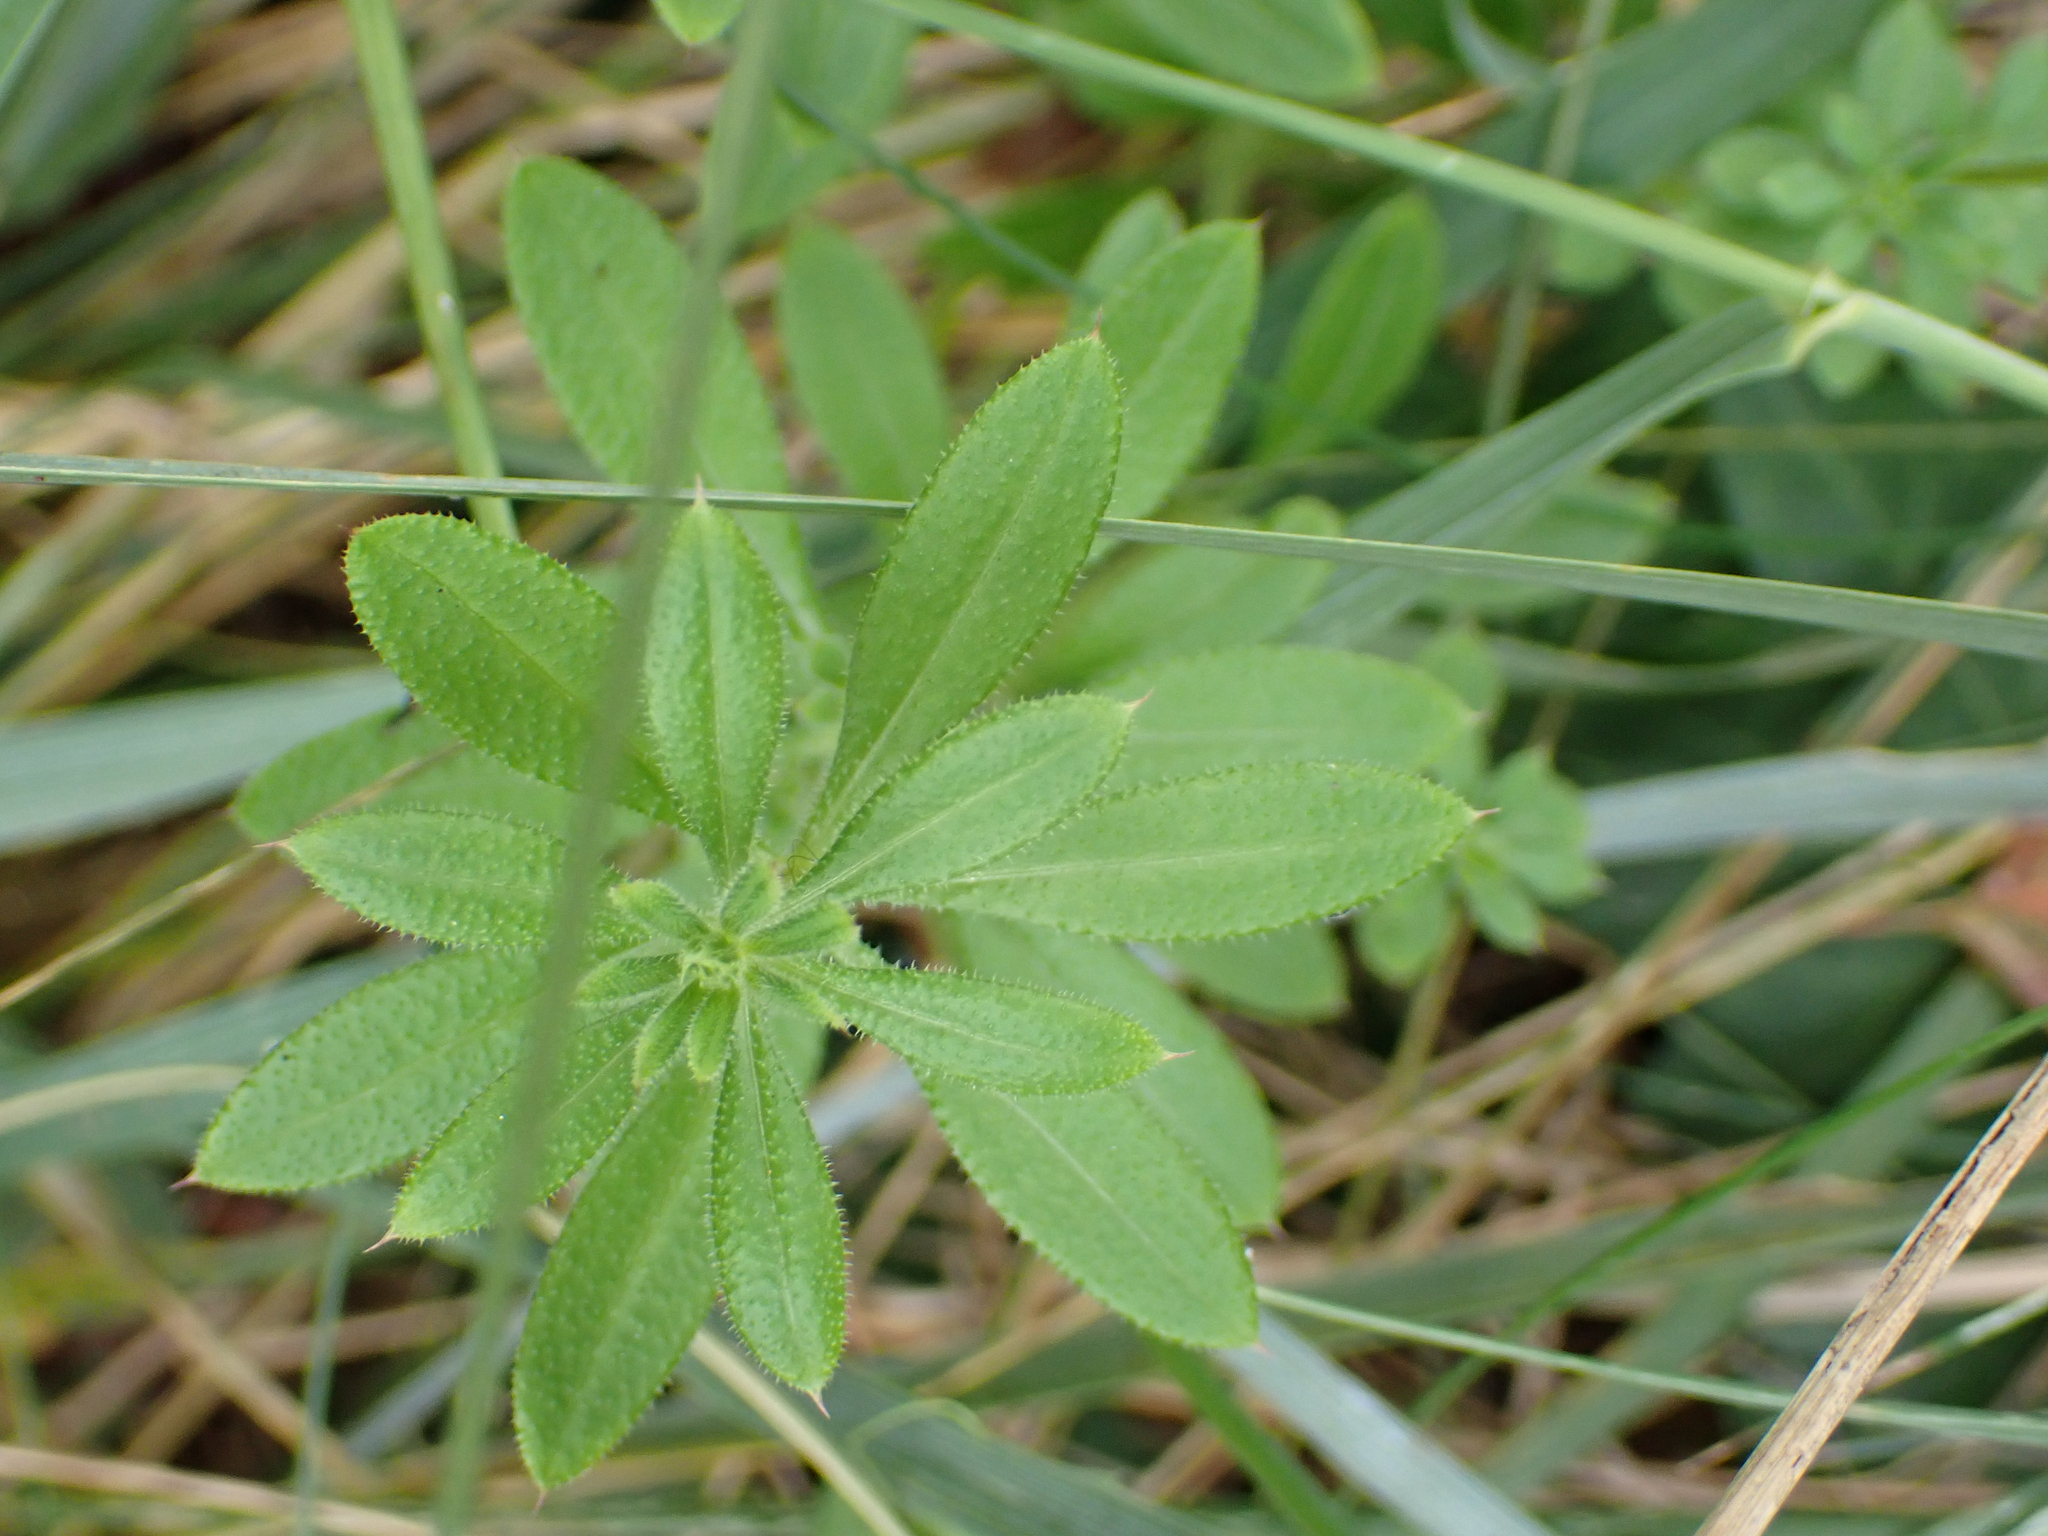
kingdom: Plantae
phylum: Tracheophyta
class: Magnoliopsida
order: Gentianales
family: Rubiaceae
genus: Galium
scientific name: Galium aparine
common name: Cleavers
